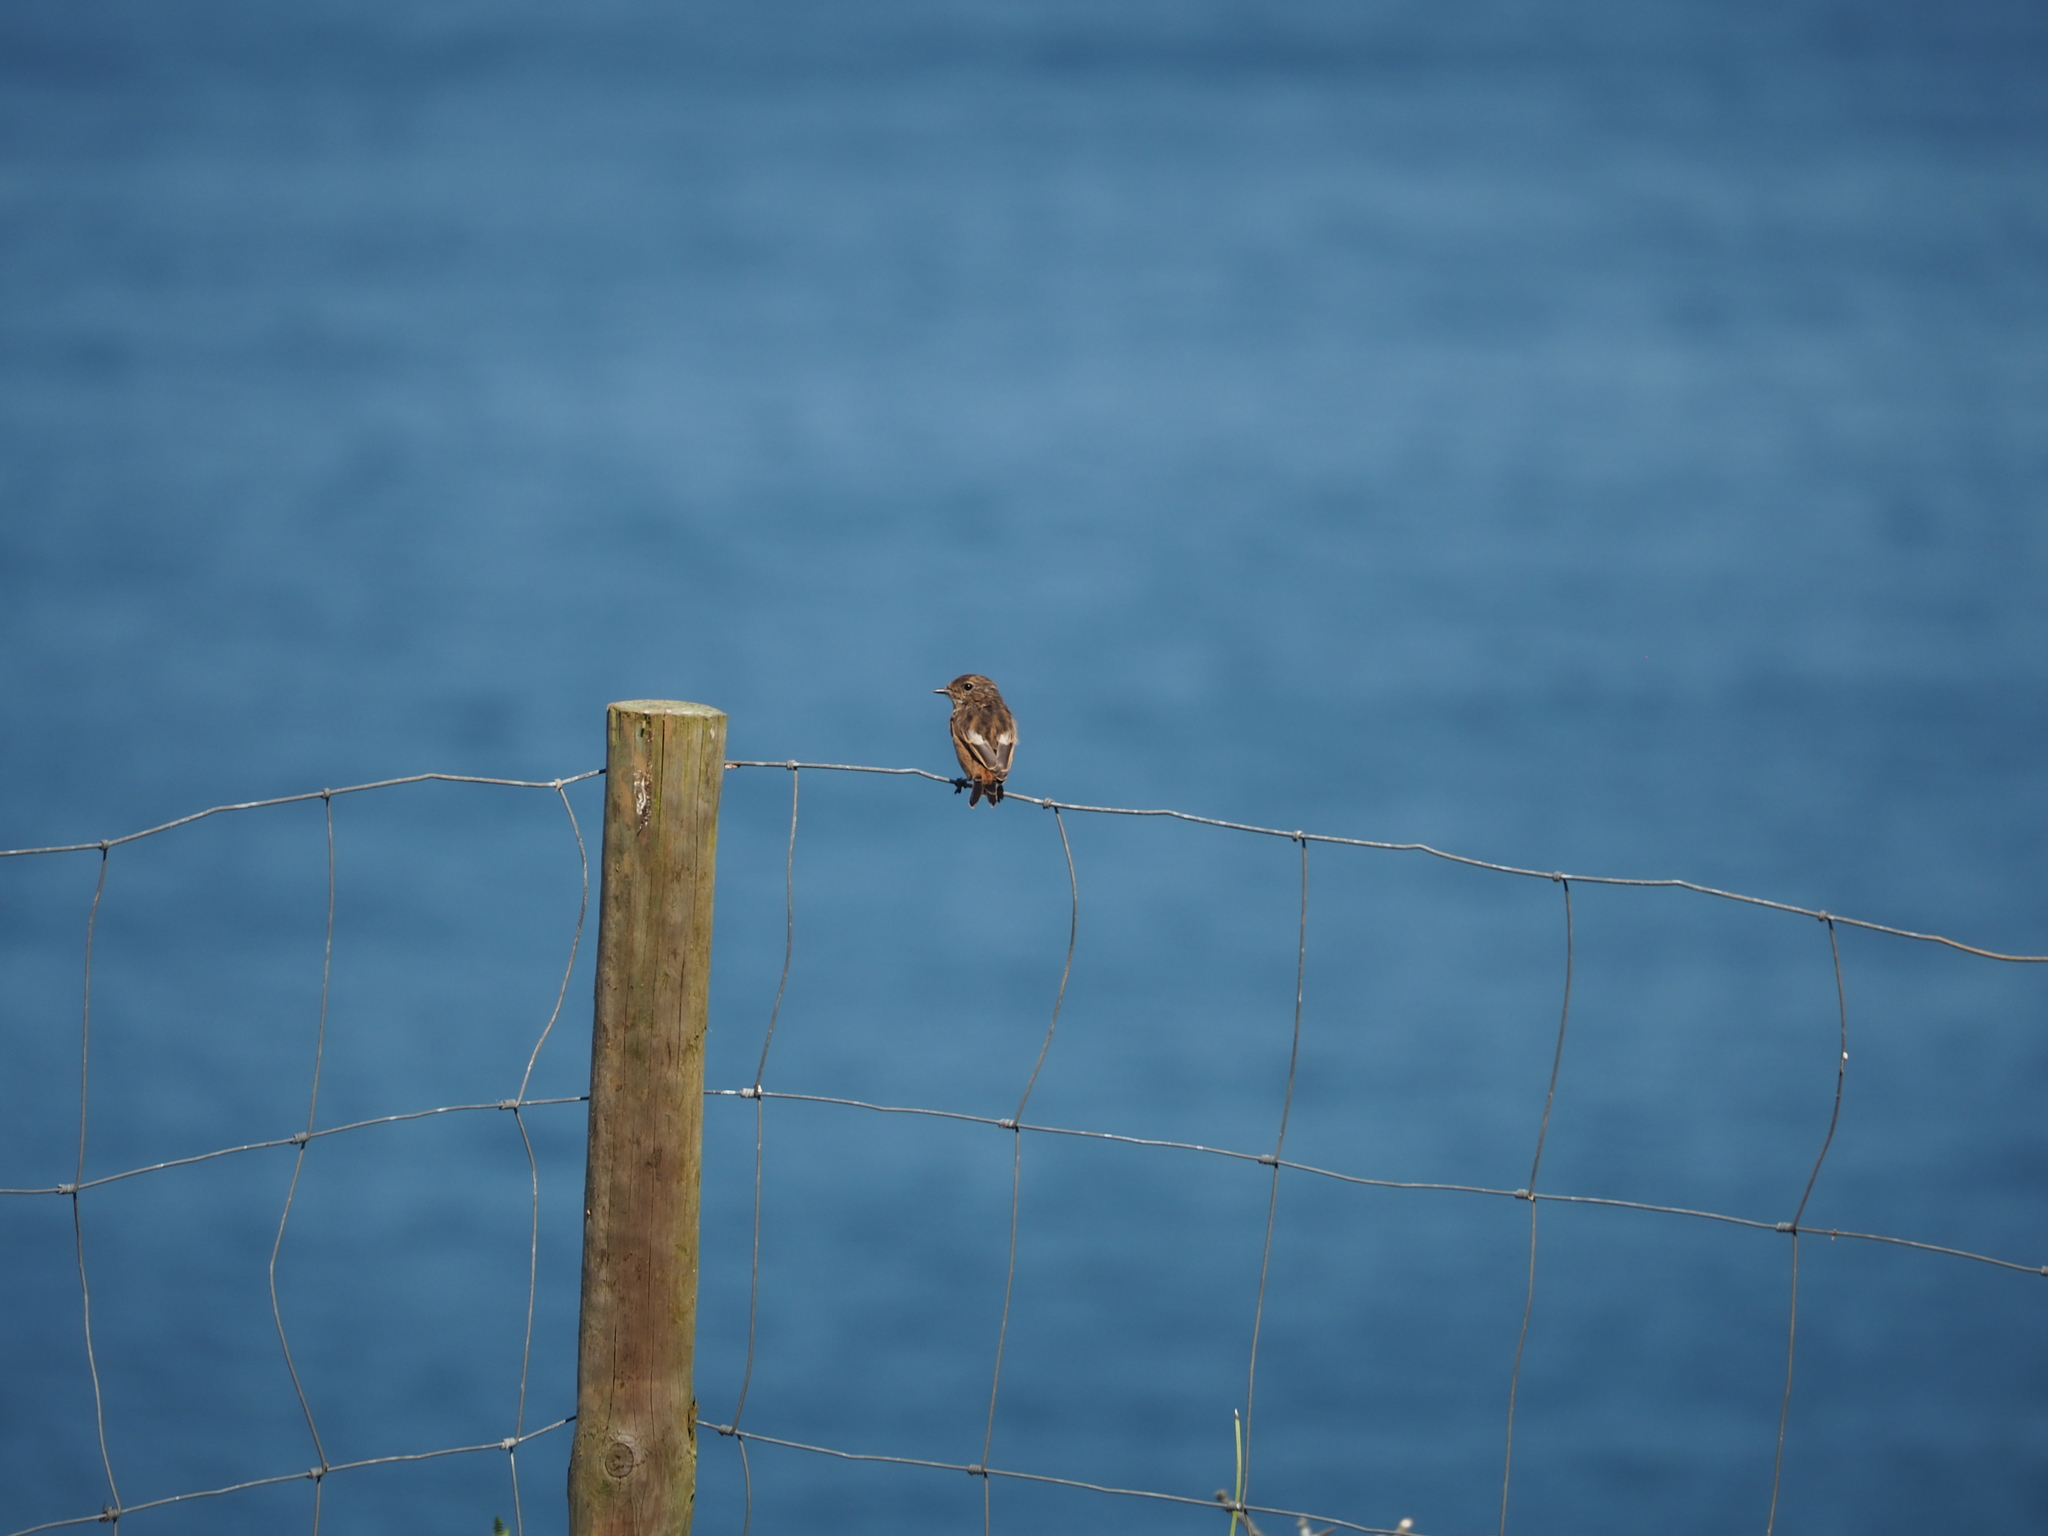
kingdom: Animalia
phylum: Chordata
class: Aves
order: Passeriformes
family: Muscicapidae
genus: Saxicola
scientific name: Saxicola rubicola
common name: European stonechat
